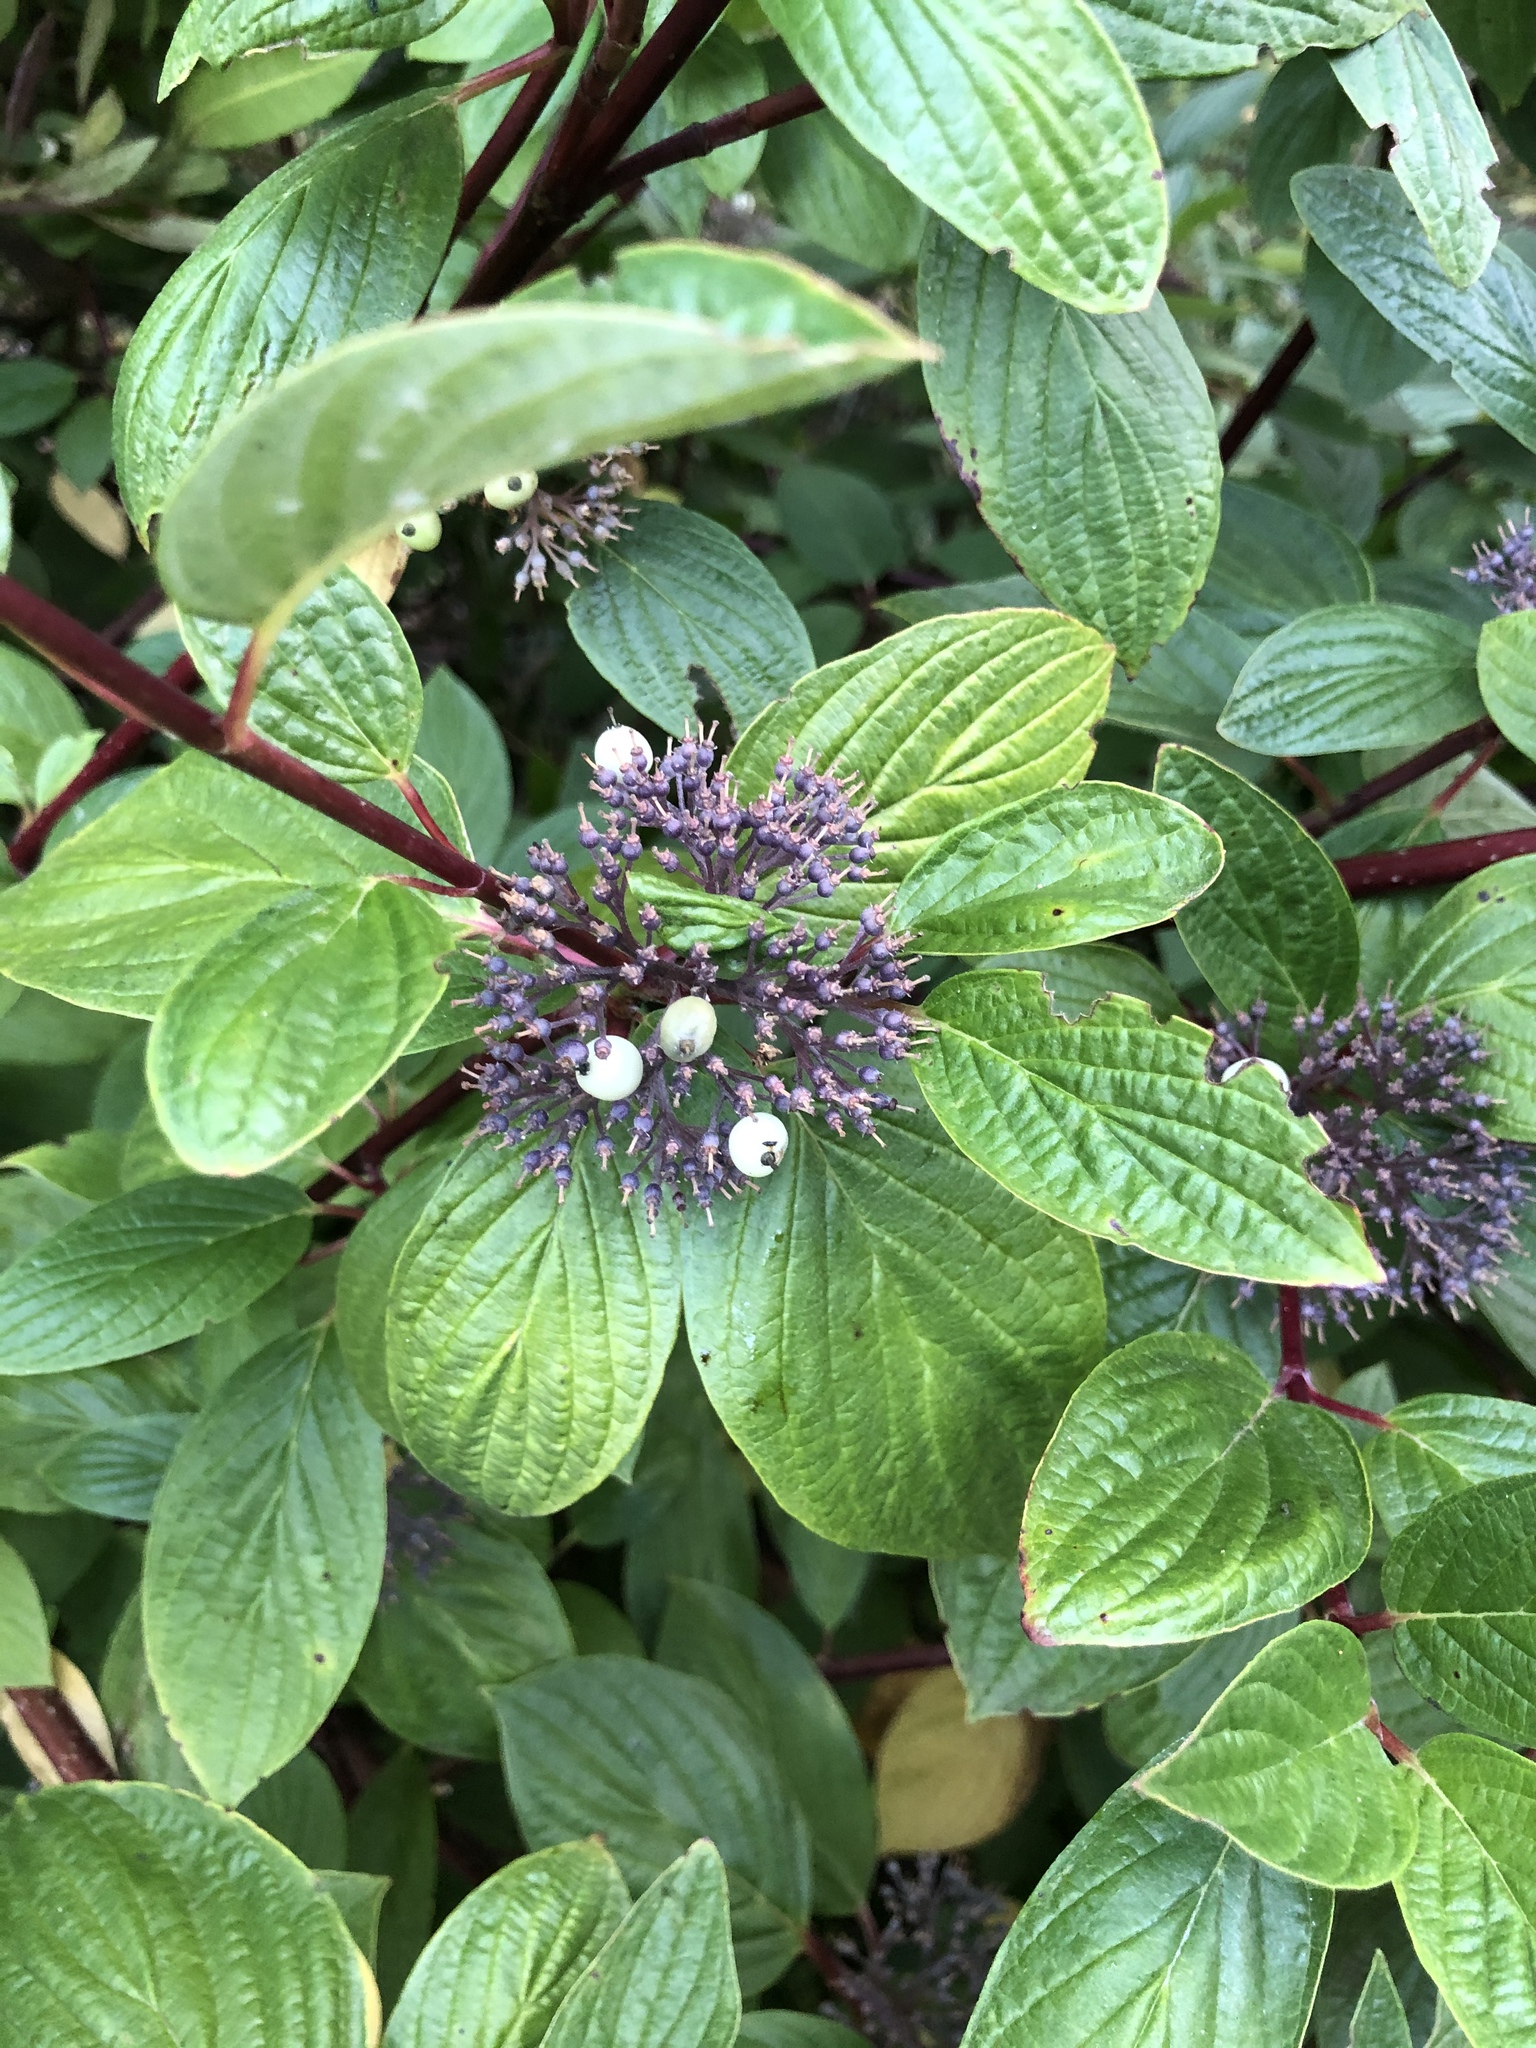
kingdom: Plantae
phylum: Tracheophyta
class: Magnoliopsida
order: Cornales
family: Cornaceae
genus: Cornus
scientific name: Cornus sericea
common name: Red-osier dogwood
